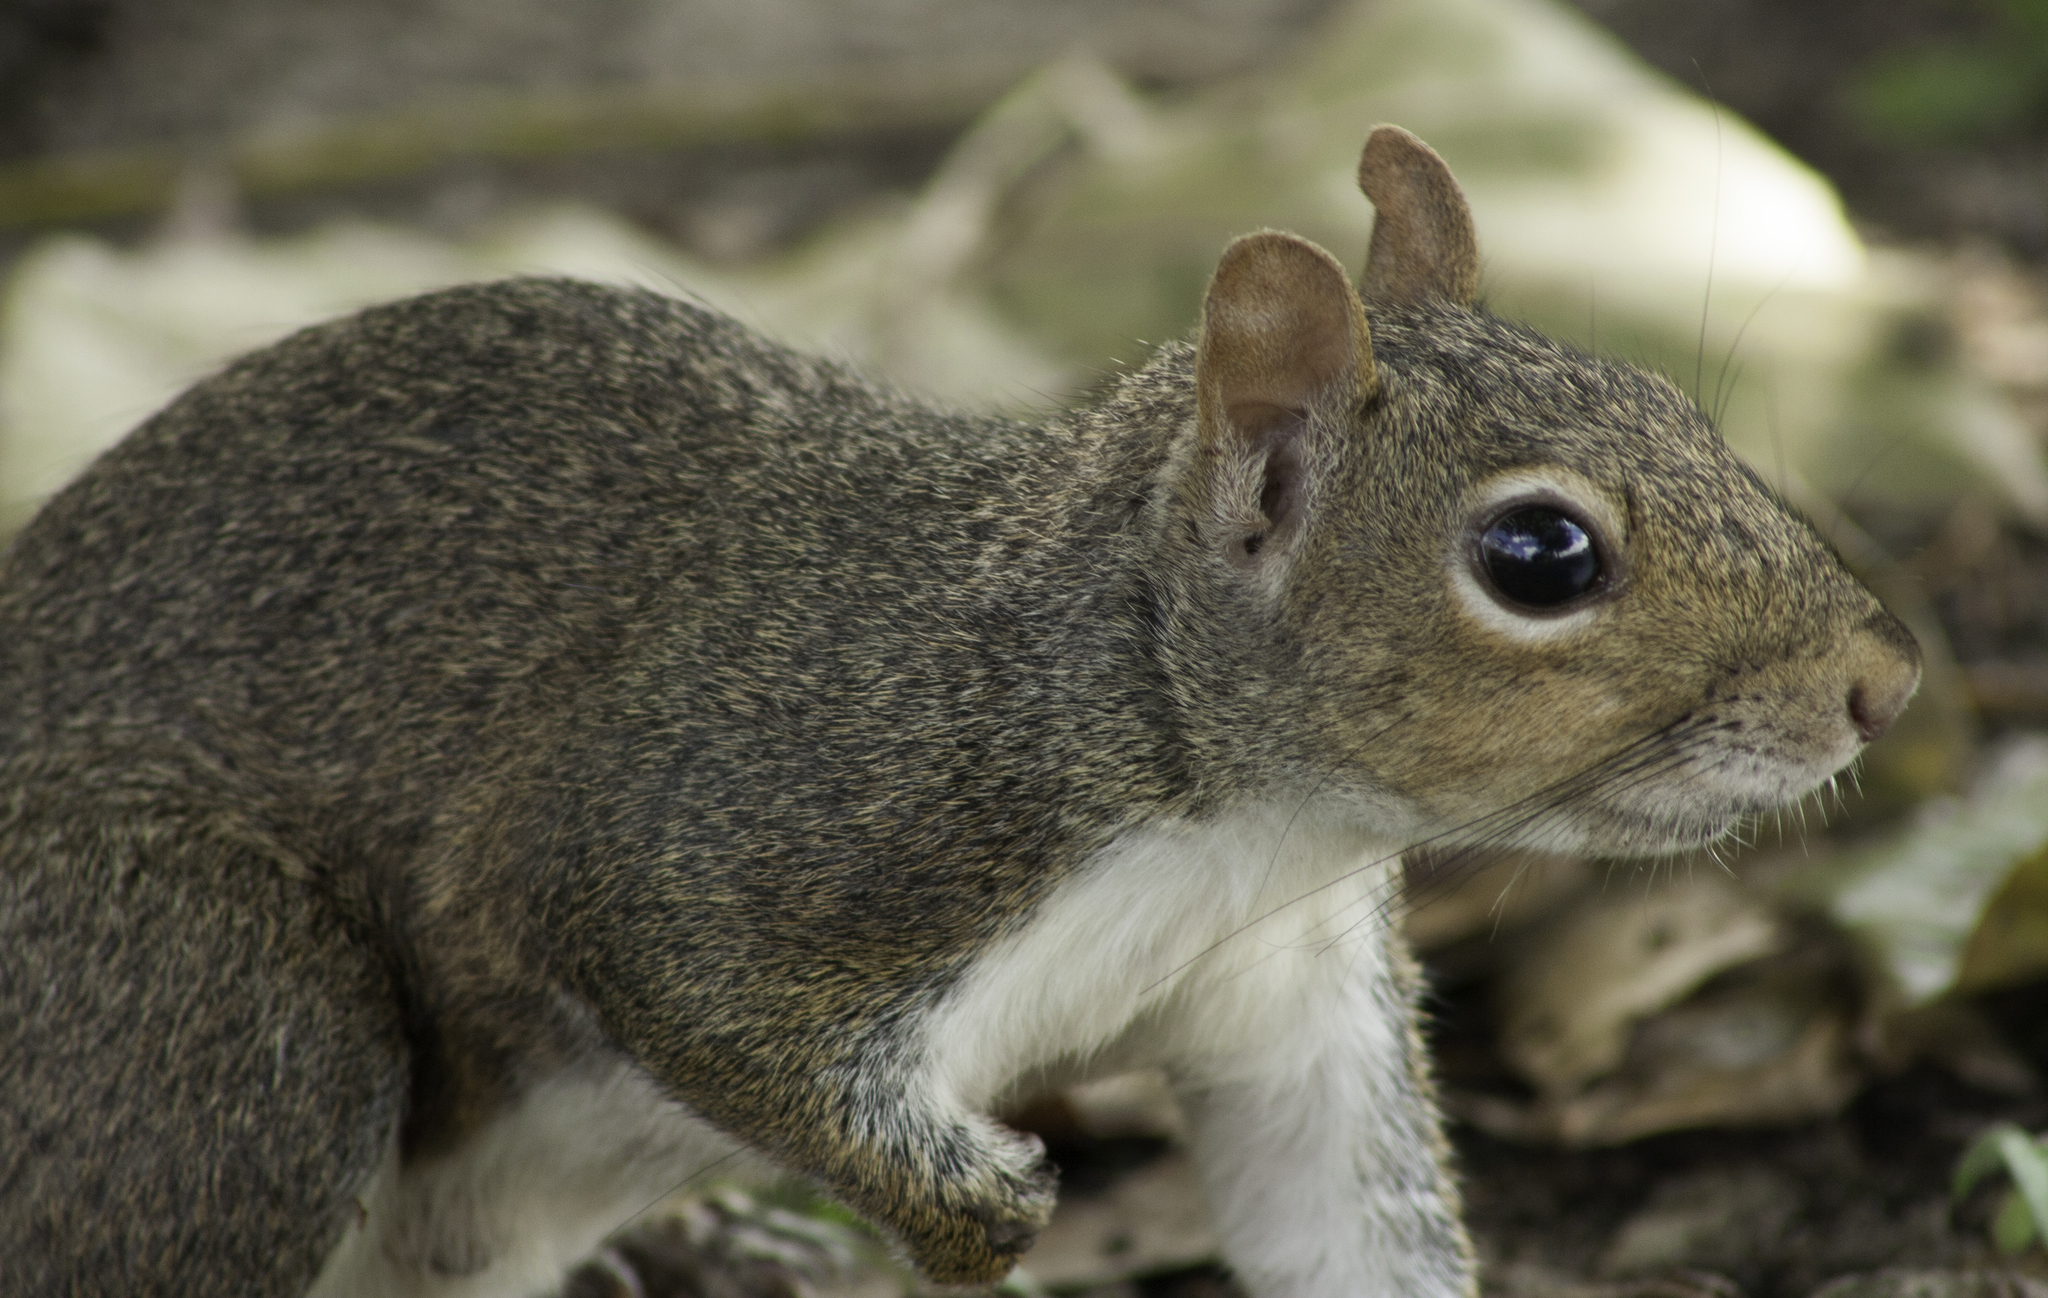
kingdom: Animalia
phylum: Chordata
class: Mammalia
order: Rodentia
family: Sciuridae
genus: Sciurus
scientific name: Sciurus carolinensis
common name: Eastern gray squirrel
